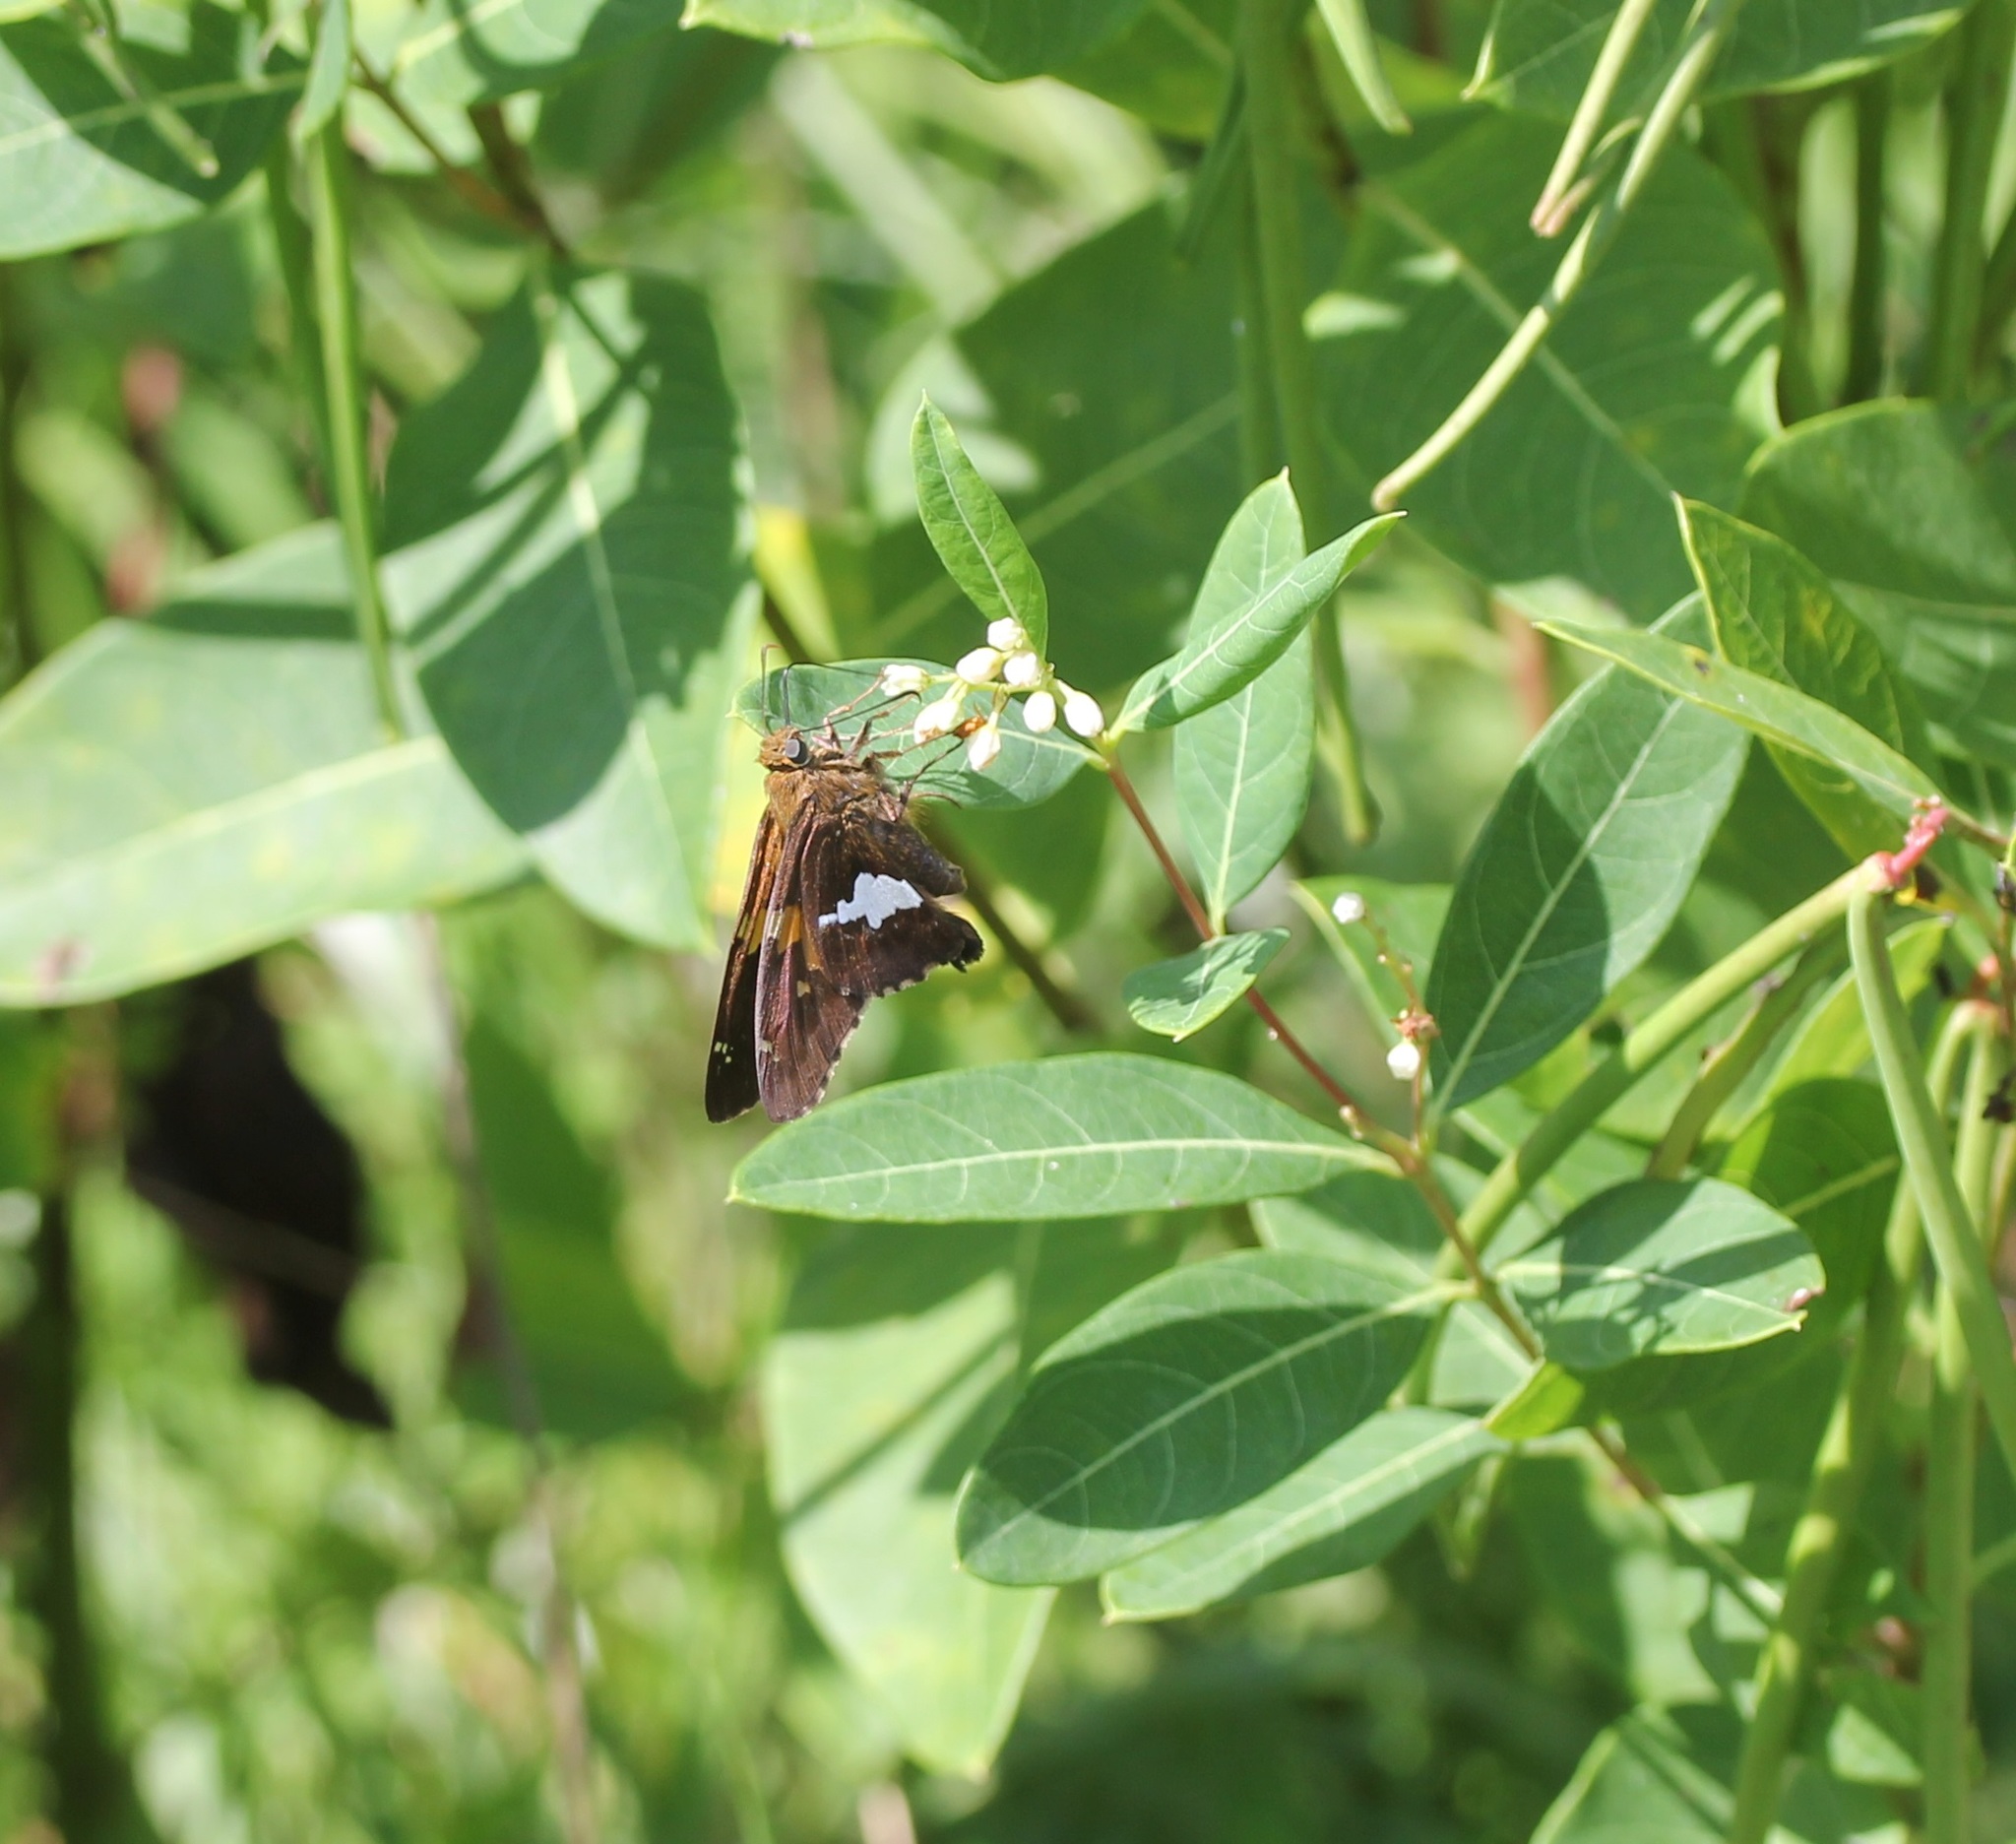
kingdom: Animalia
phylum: Arthropoda
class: Insecta
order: Lepidoptera
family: Hesperiidae
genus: Epargyreus
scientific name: Epargyreus clarus
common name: Silver-spotted skipper
